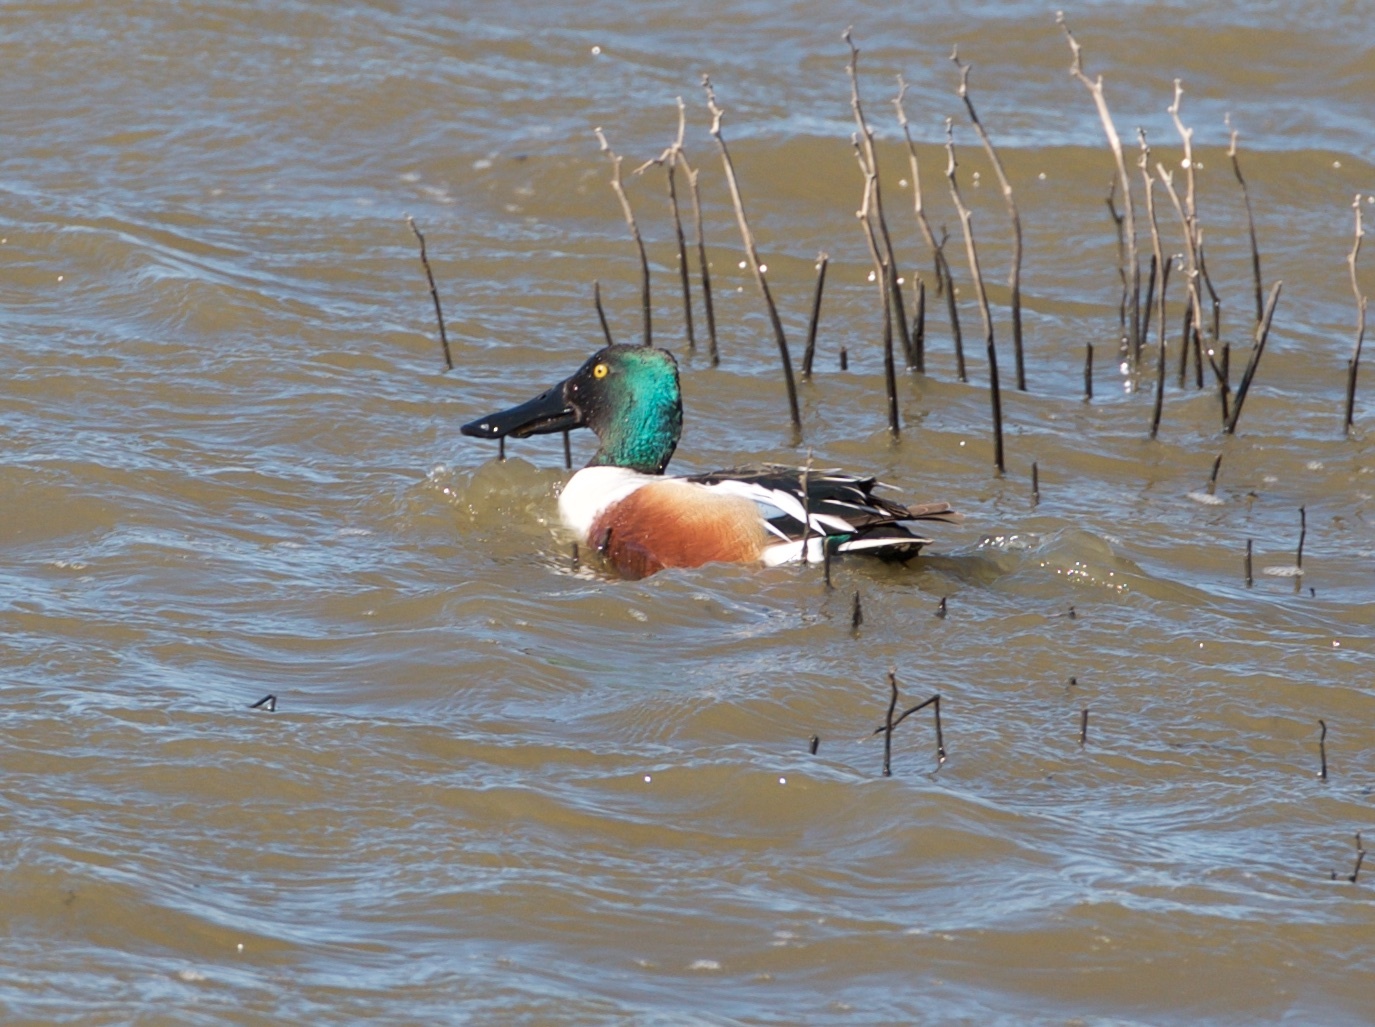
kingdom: Animalia
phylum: Chordata
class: Aves
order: Anseriformes
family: Anatidae
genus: Spatula
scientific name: Spatula clypeata
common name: Northern shoveler
